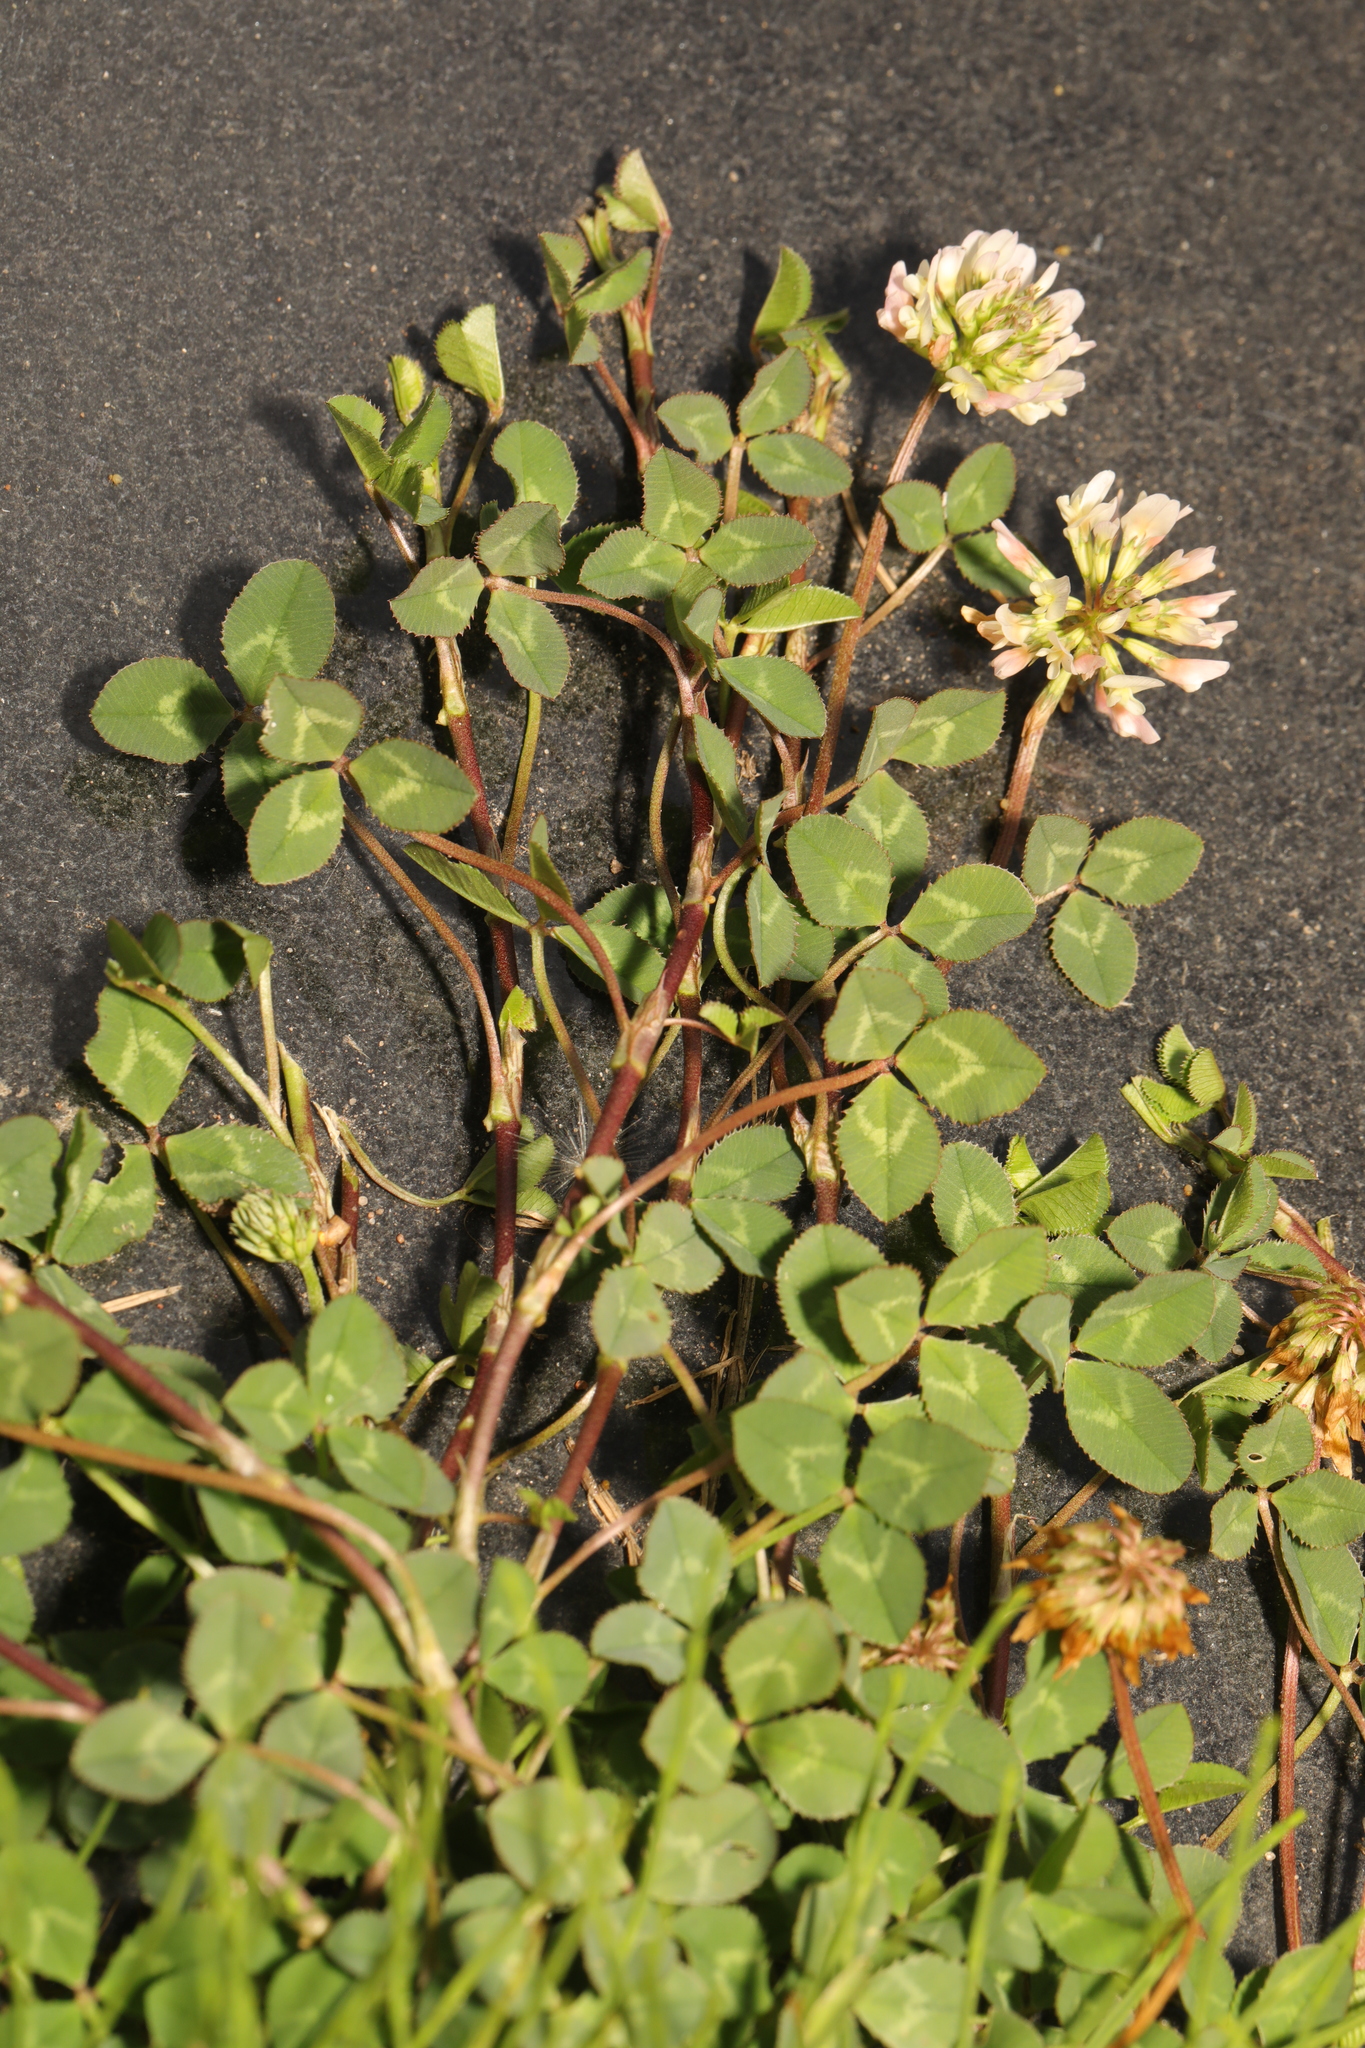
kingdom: Plantae
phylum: Tracheophyta
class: Magnoliopsida
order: Fabales
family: Fabaceae
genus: Trifolium
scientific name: Trifolium repens
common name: White clover
